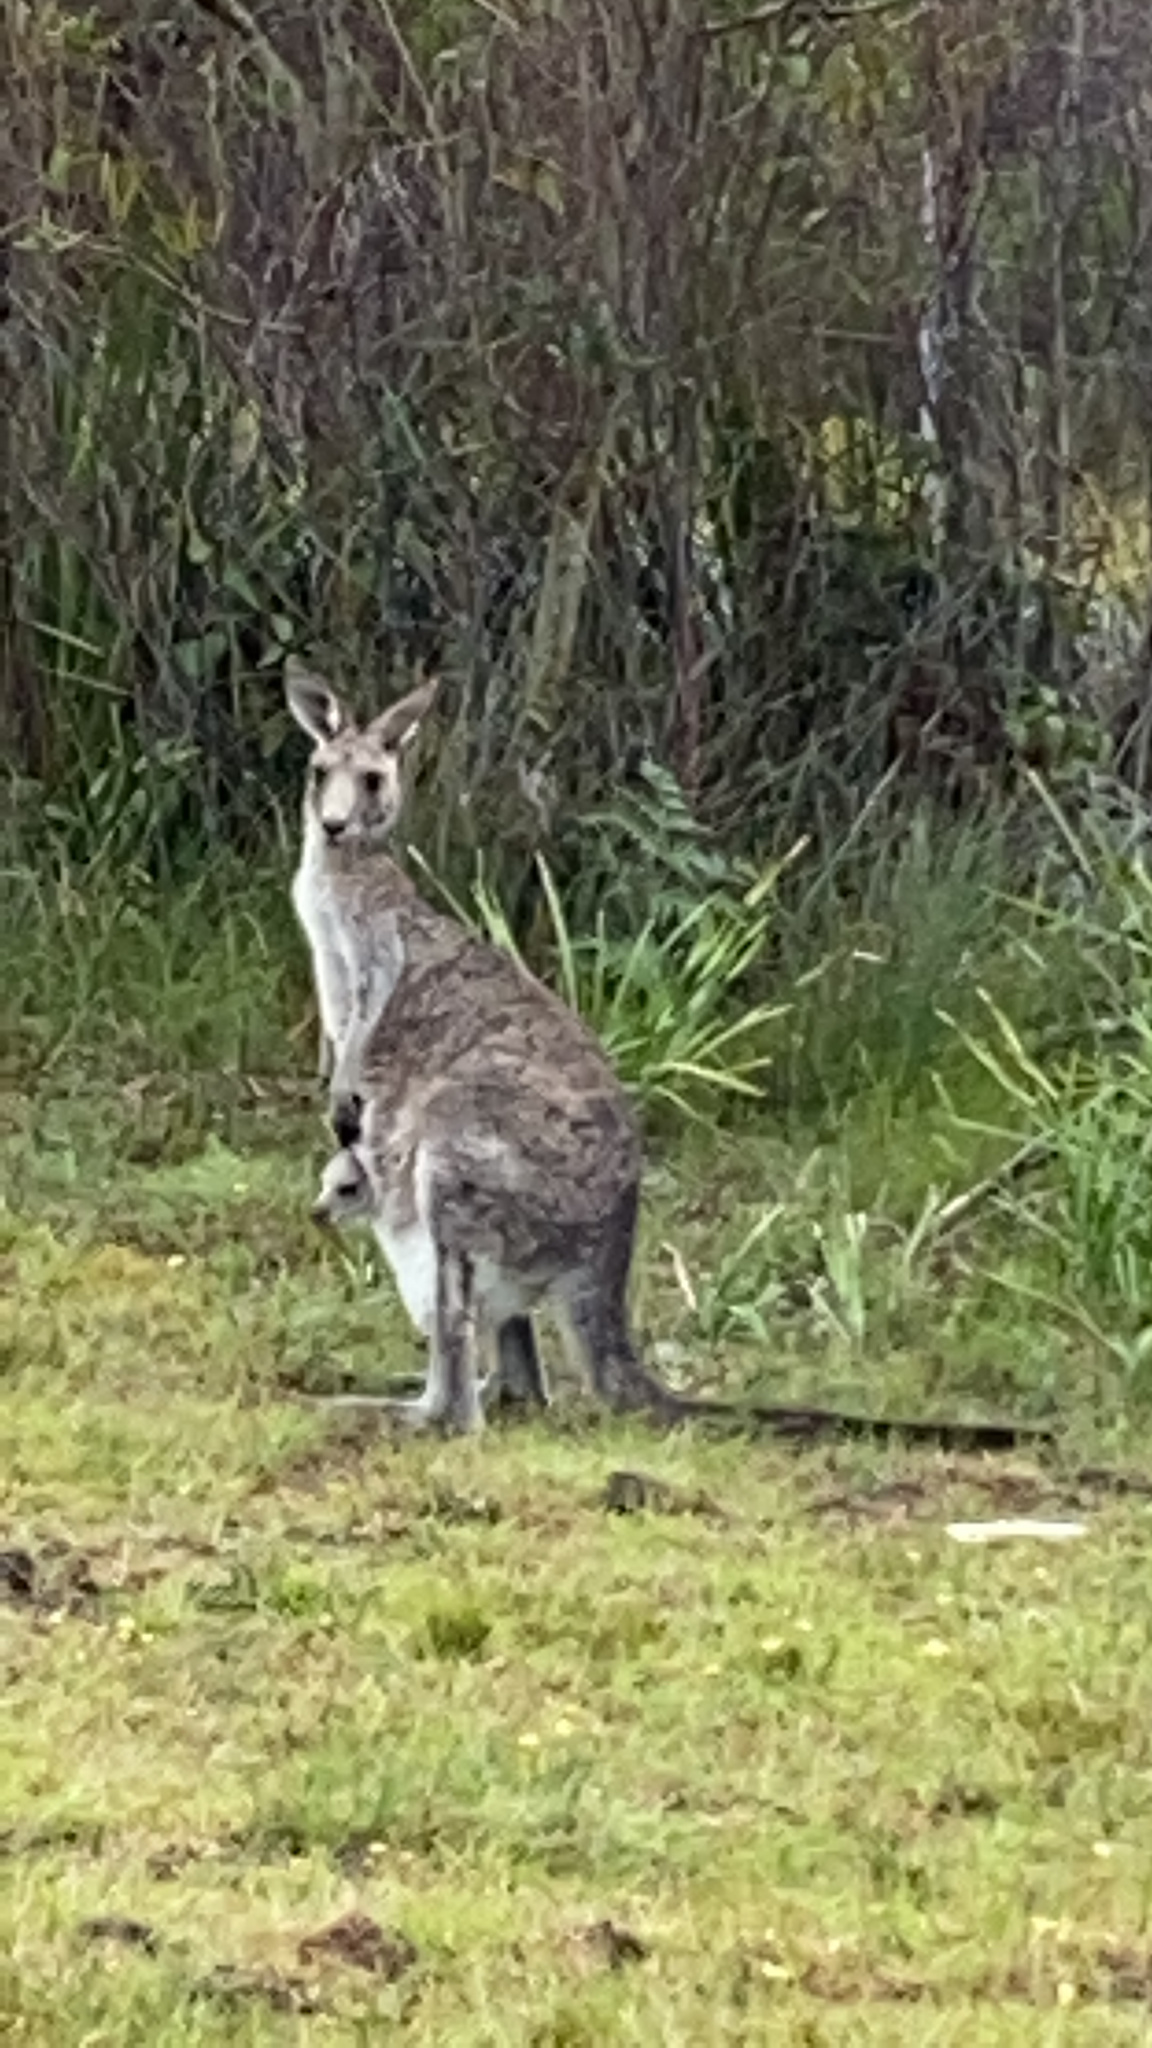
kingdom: Animalia
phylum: Chordata
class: Mammalia
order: Diprotodontia
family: Macropodidae
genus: Macropus
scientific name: Macropus giganteus
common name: Eastern grey kangaroo
